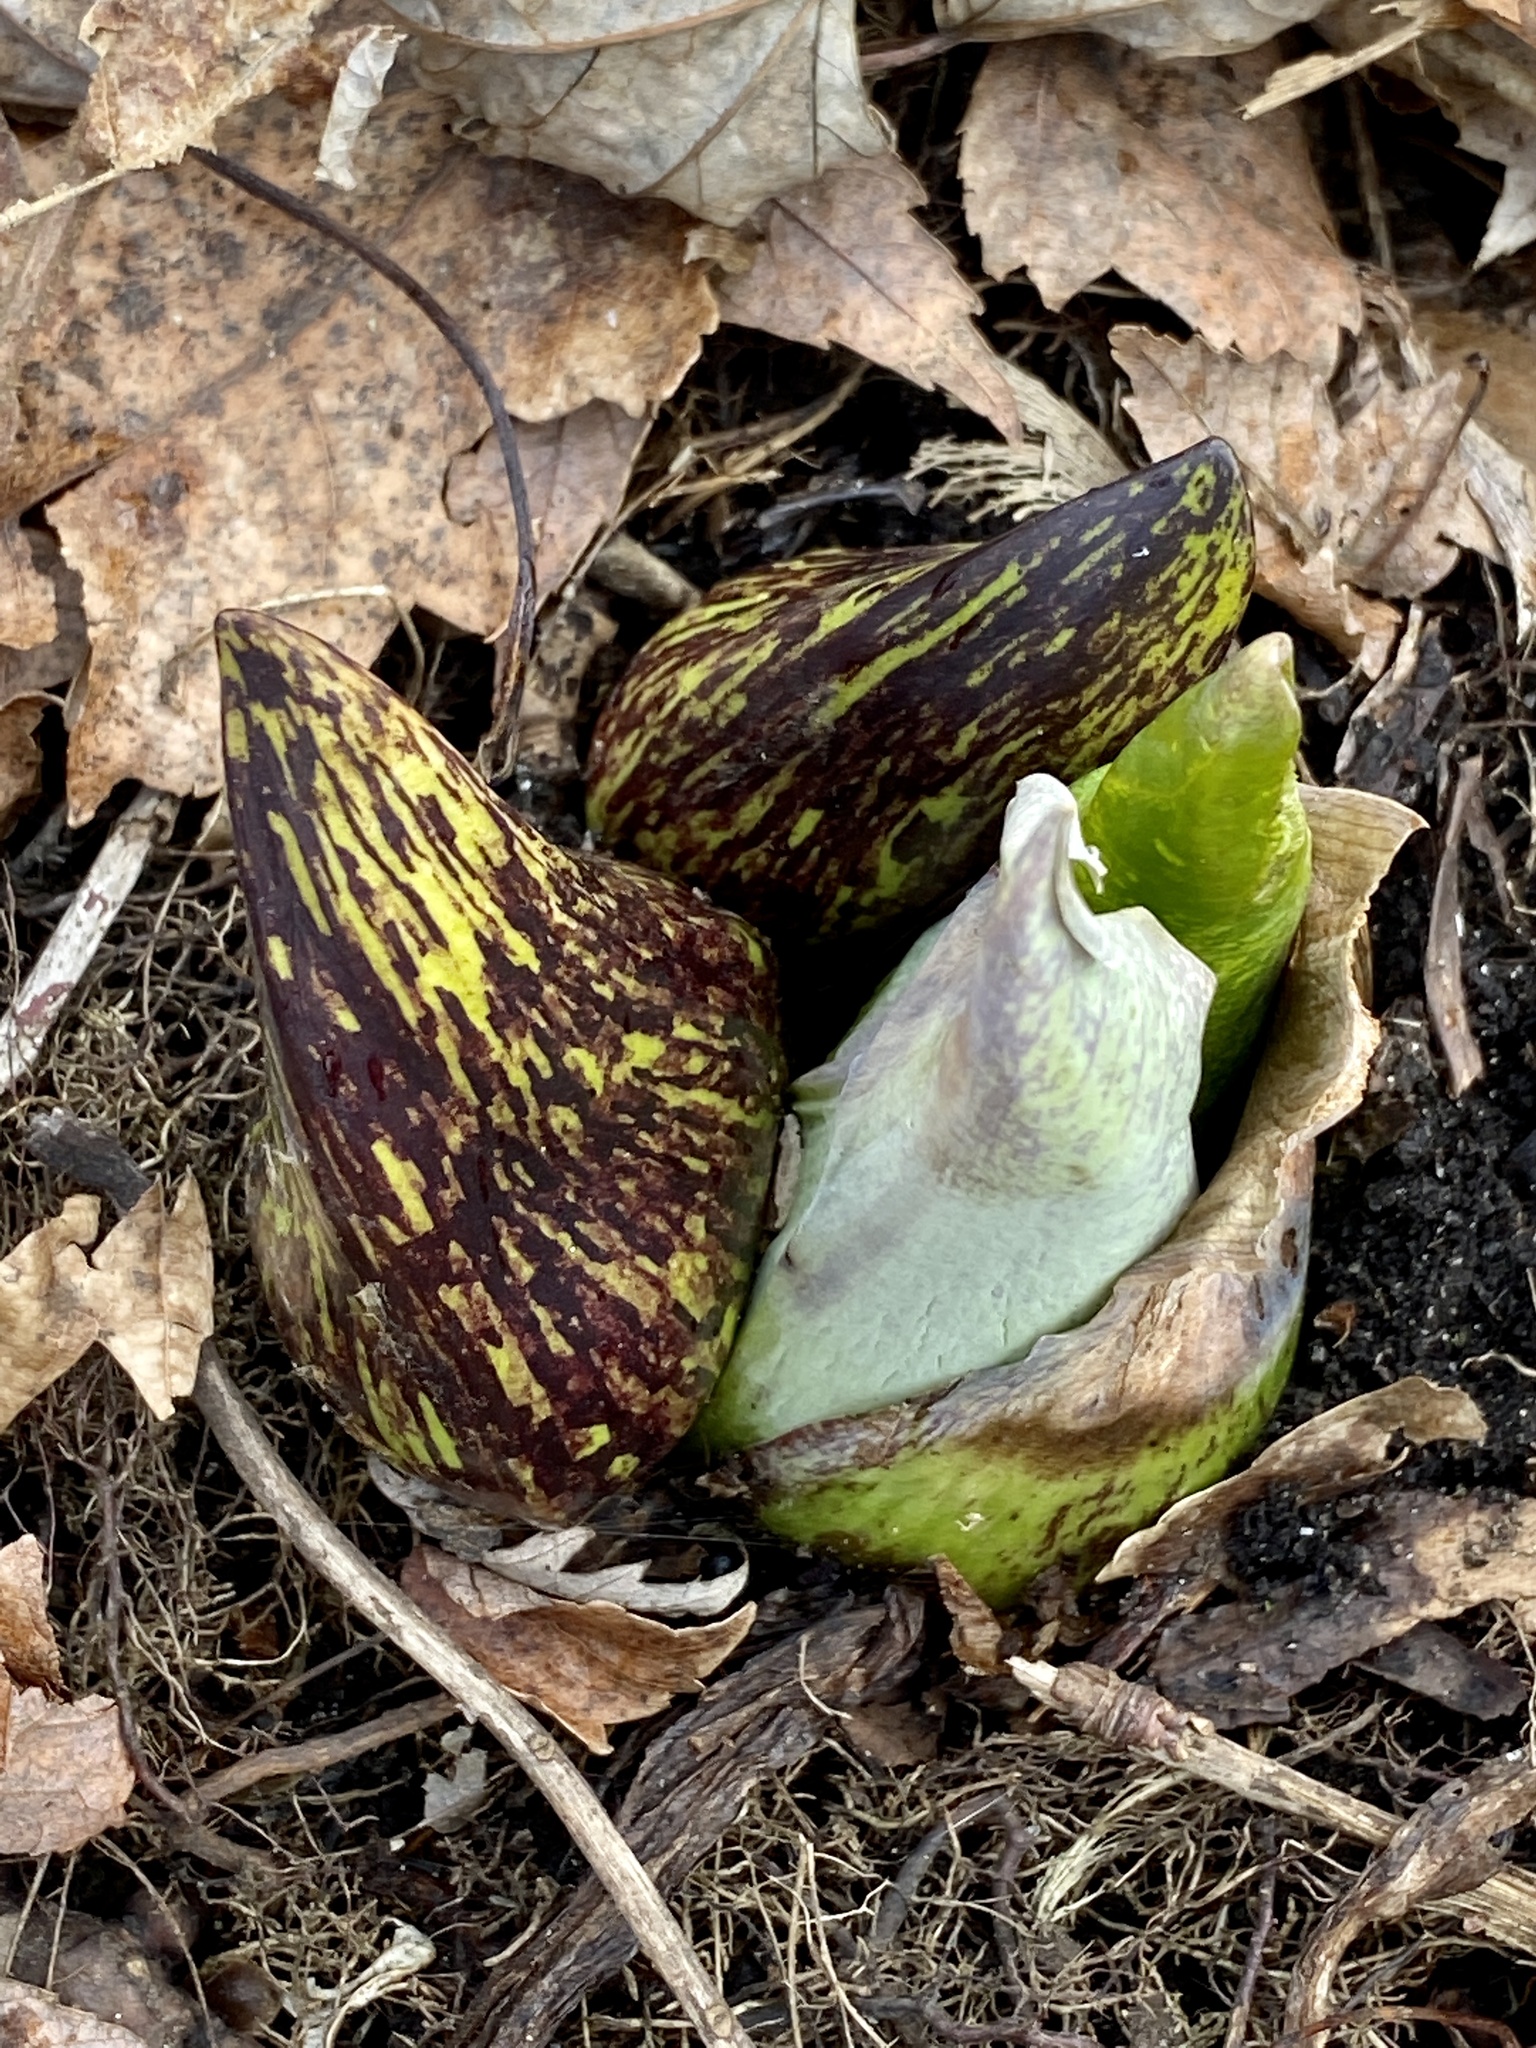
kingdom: Plantae
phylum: Tracheophyta
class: Liliopsida
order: Alismatales
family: Araceae
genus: Symplocarpus
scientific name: Symplocarpus foetidus
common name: Eastern skunk cabbage
